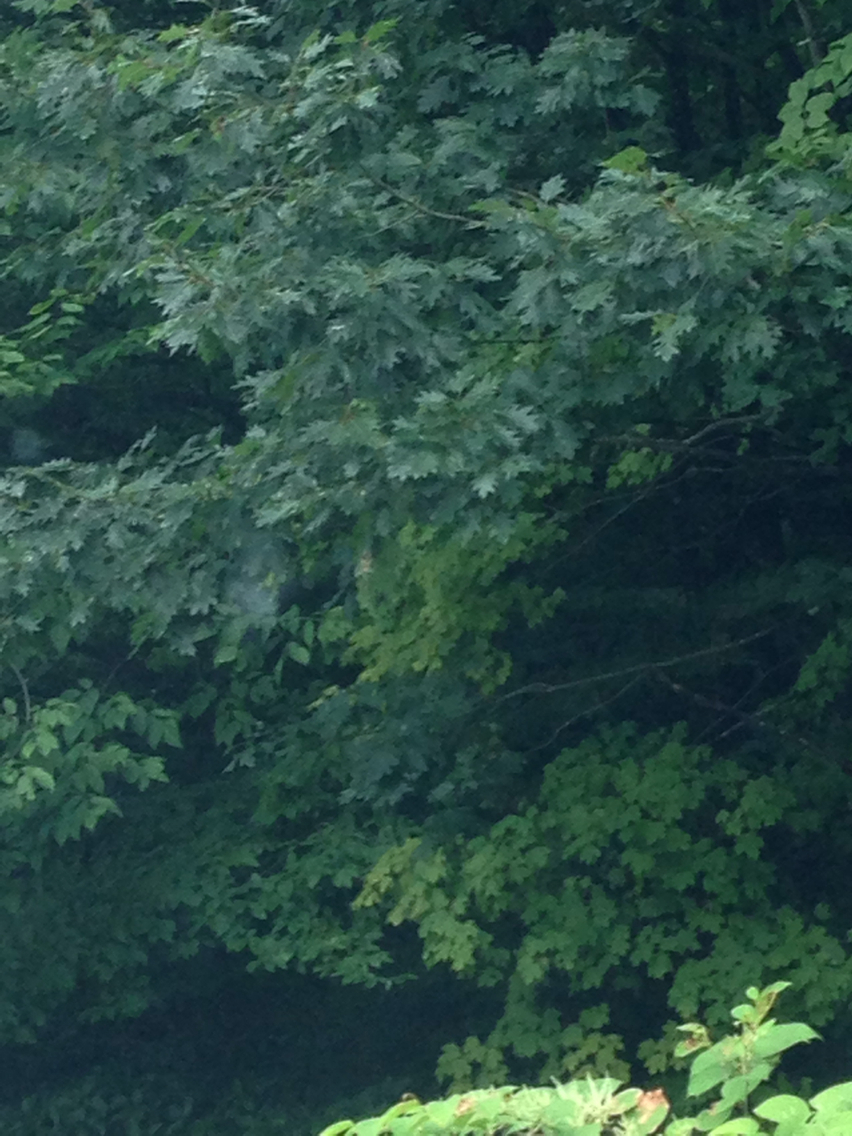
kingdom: Plantae
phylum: Tracheophyta
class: Magnoliopsida
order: Fagales
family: Fagaceae
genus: Quercus
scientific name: Quercus rubra
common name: Red oak
